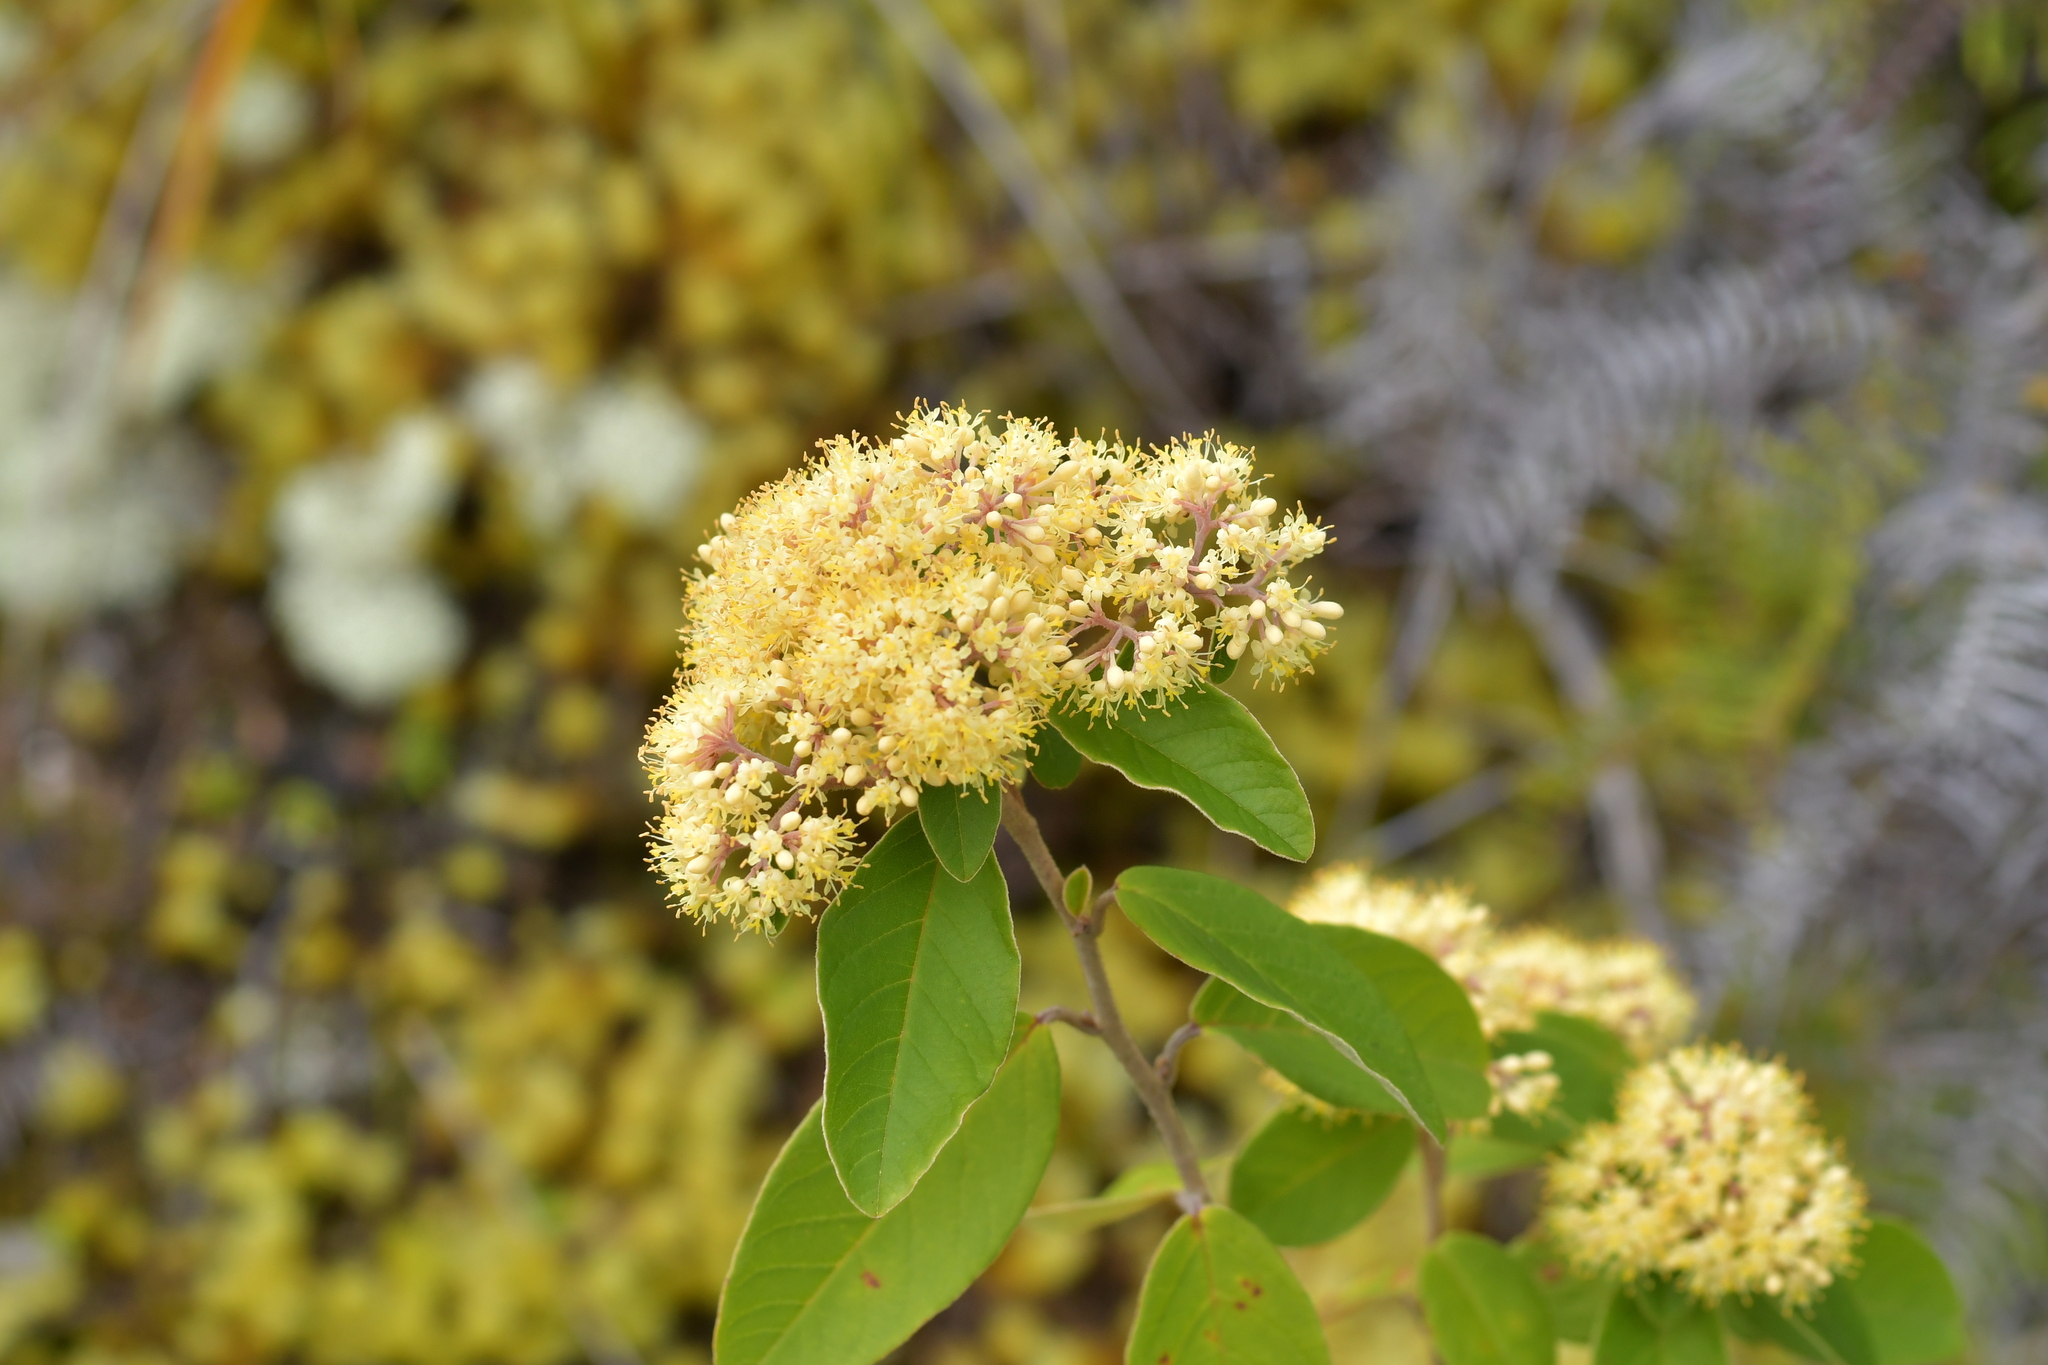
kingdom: Plantae
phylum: Tracheophyta
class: Magnoliopsida
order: Rosales
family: Rhamnaceae
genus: Pomaderris
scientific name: Pomaderris kumeraho
